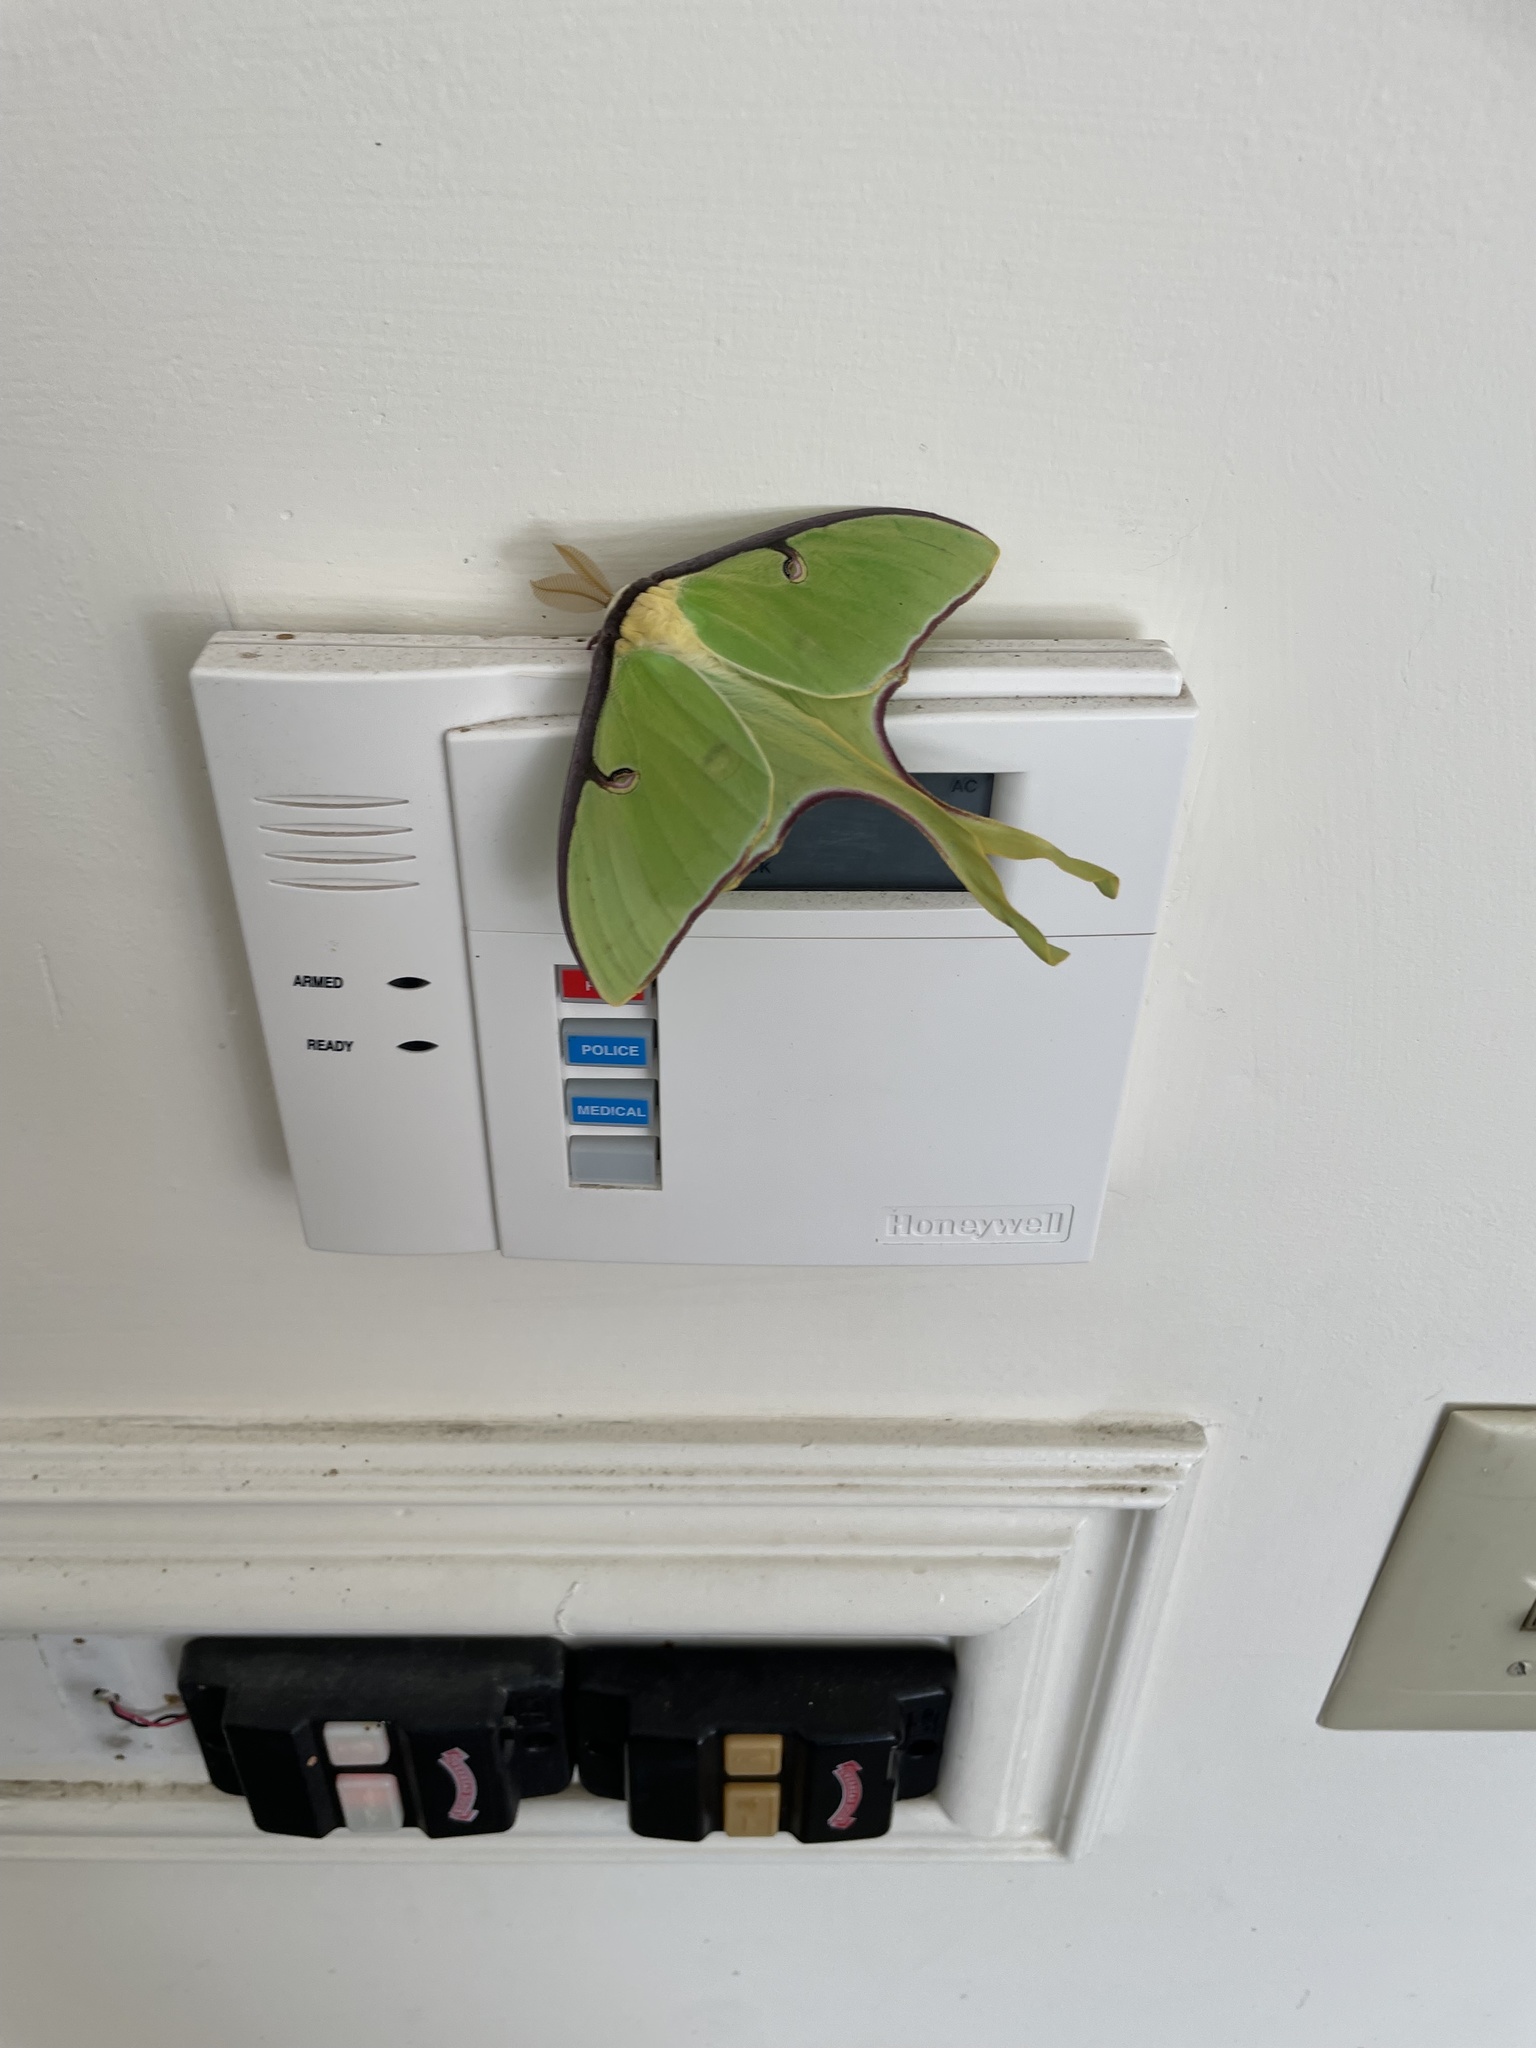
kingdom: Animalia
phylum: Arthropoda
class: Insecta
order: Lepidoptera
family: Saturniidae
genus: Actias
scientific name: Actias luna
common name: Luna moth
